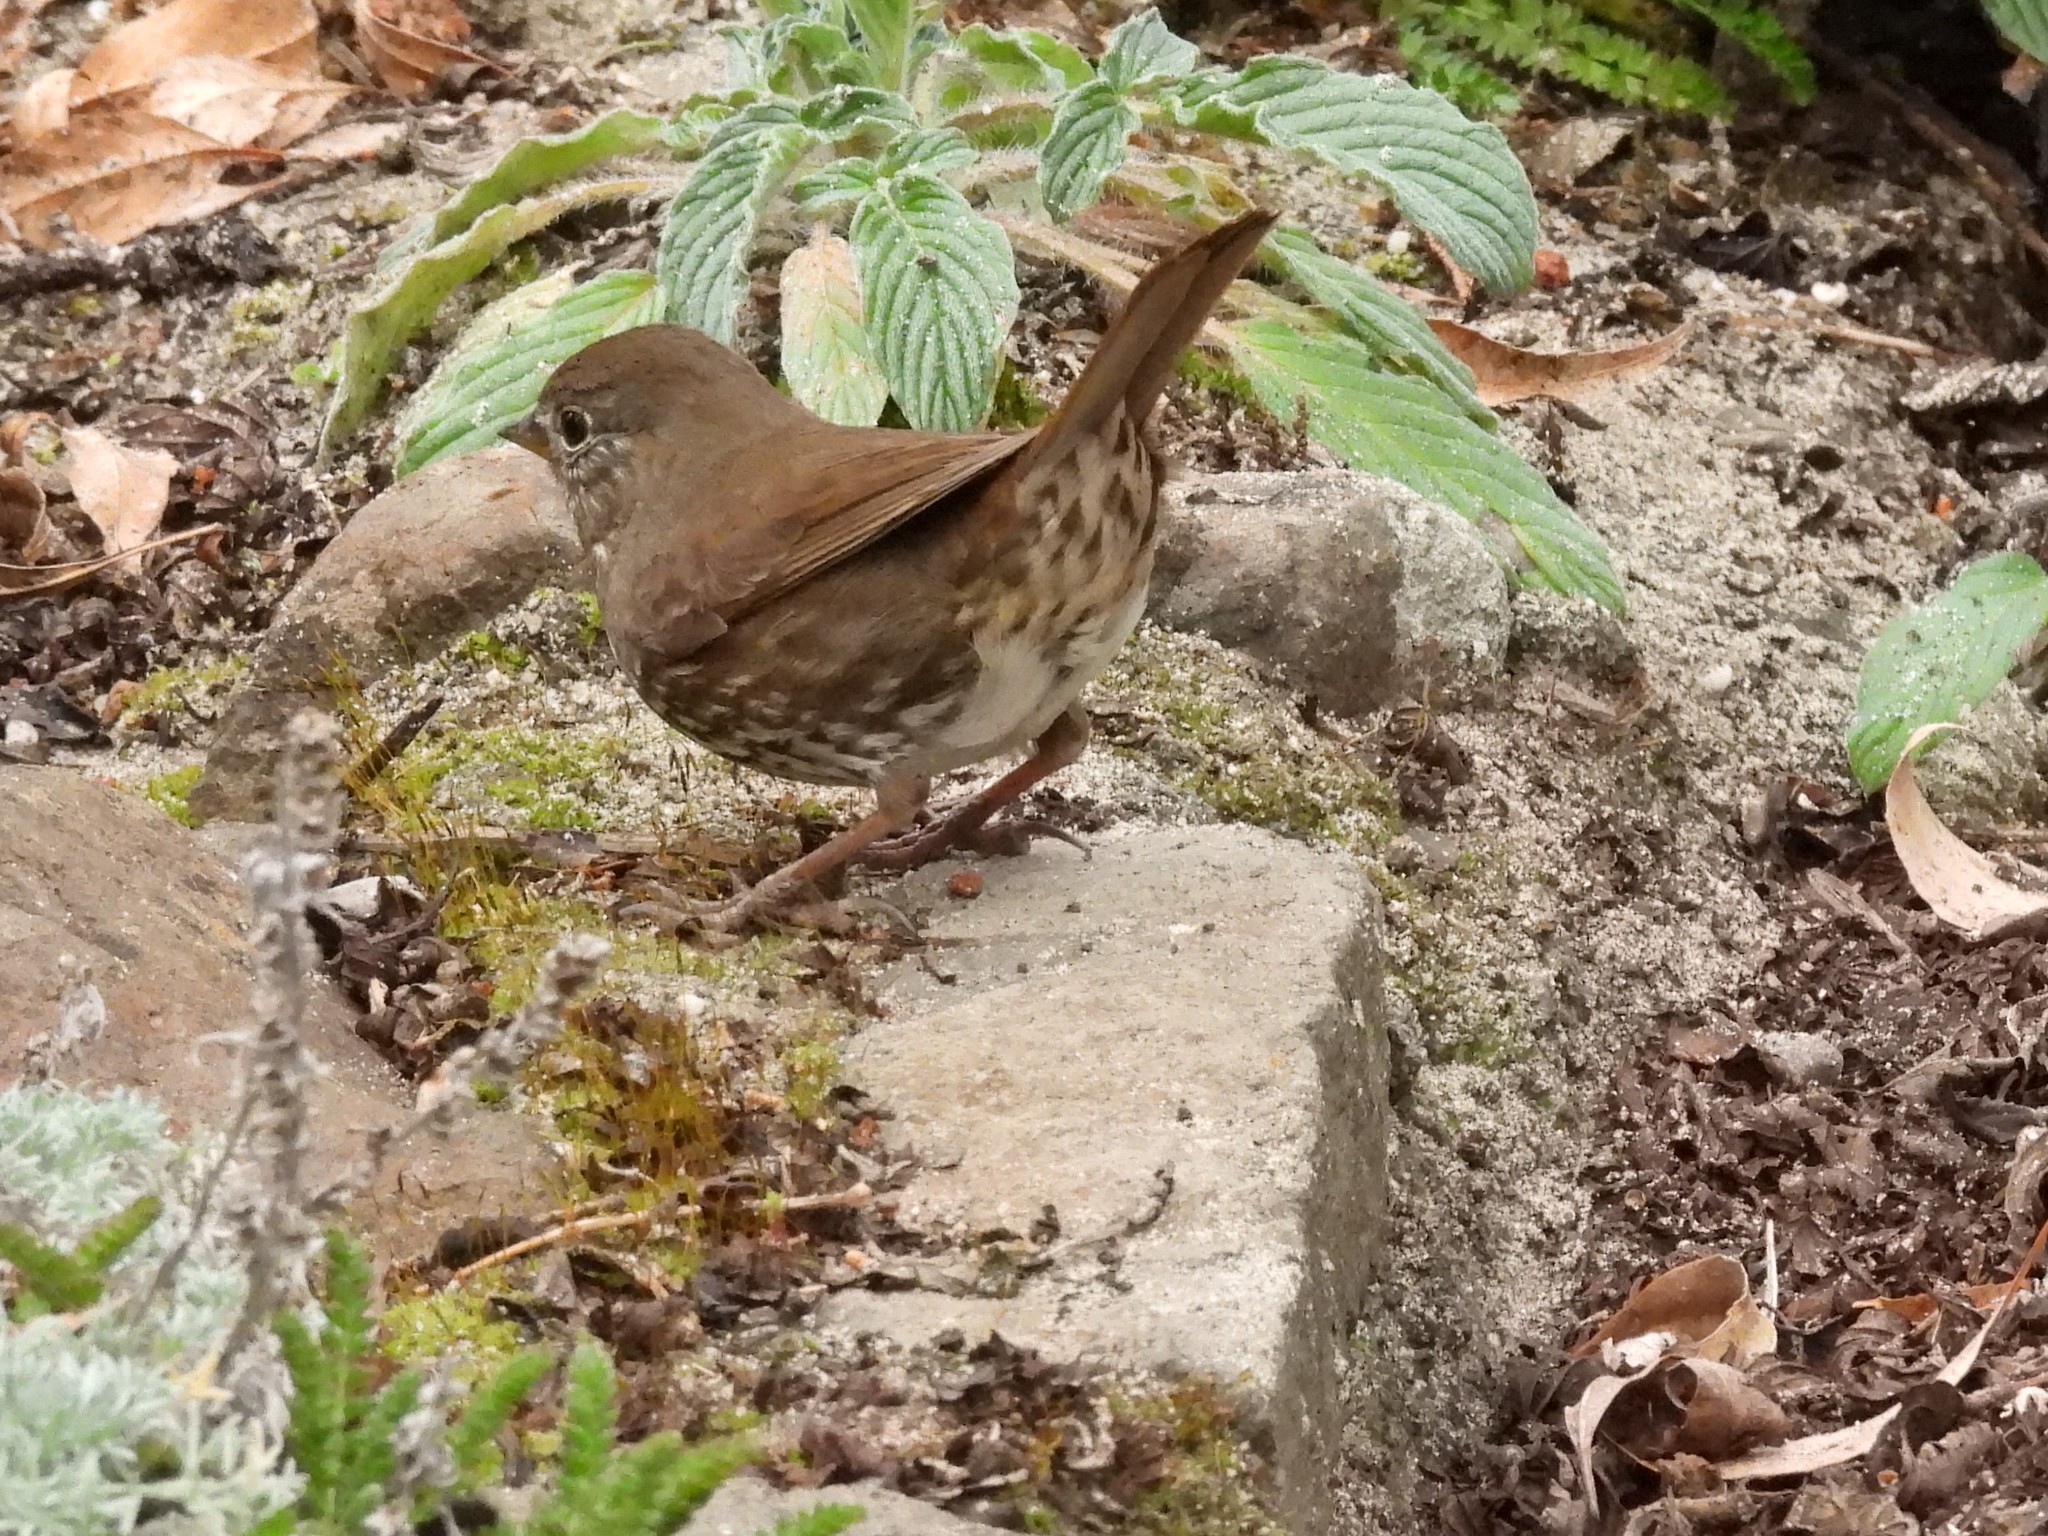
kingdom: Animalia
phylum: Chordata
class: Aves
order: Passeriformes
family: Passerellidae
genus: Passerella
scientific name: Passerella iliaca
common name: Fox sparrow
